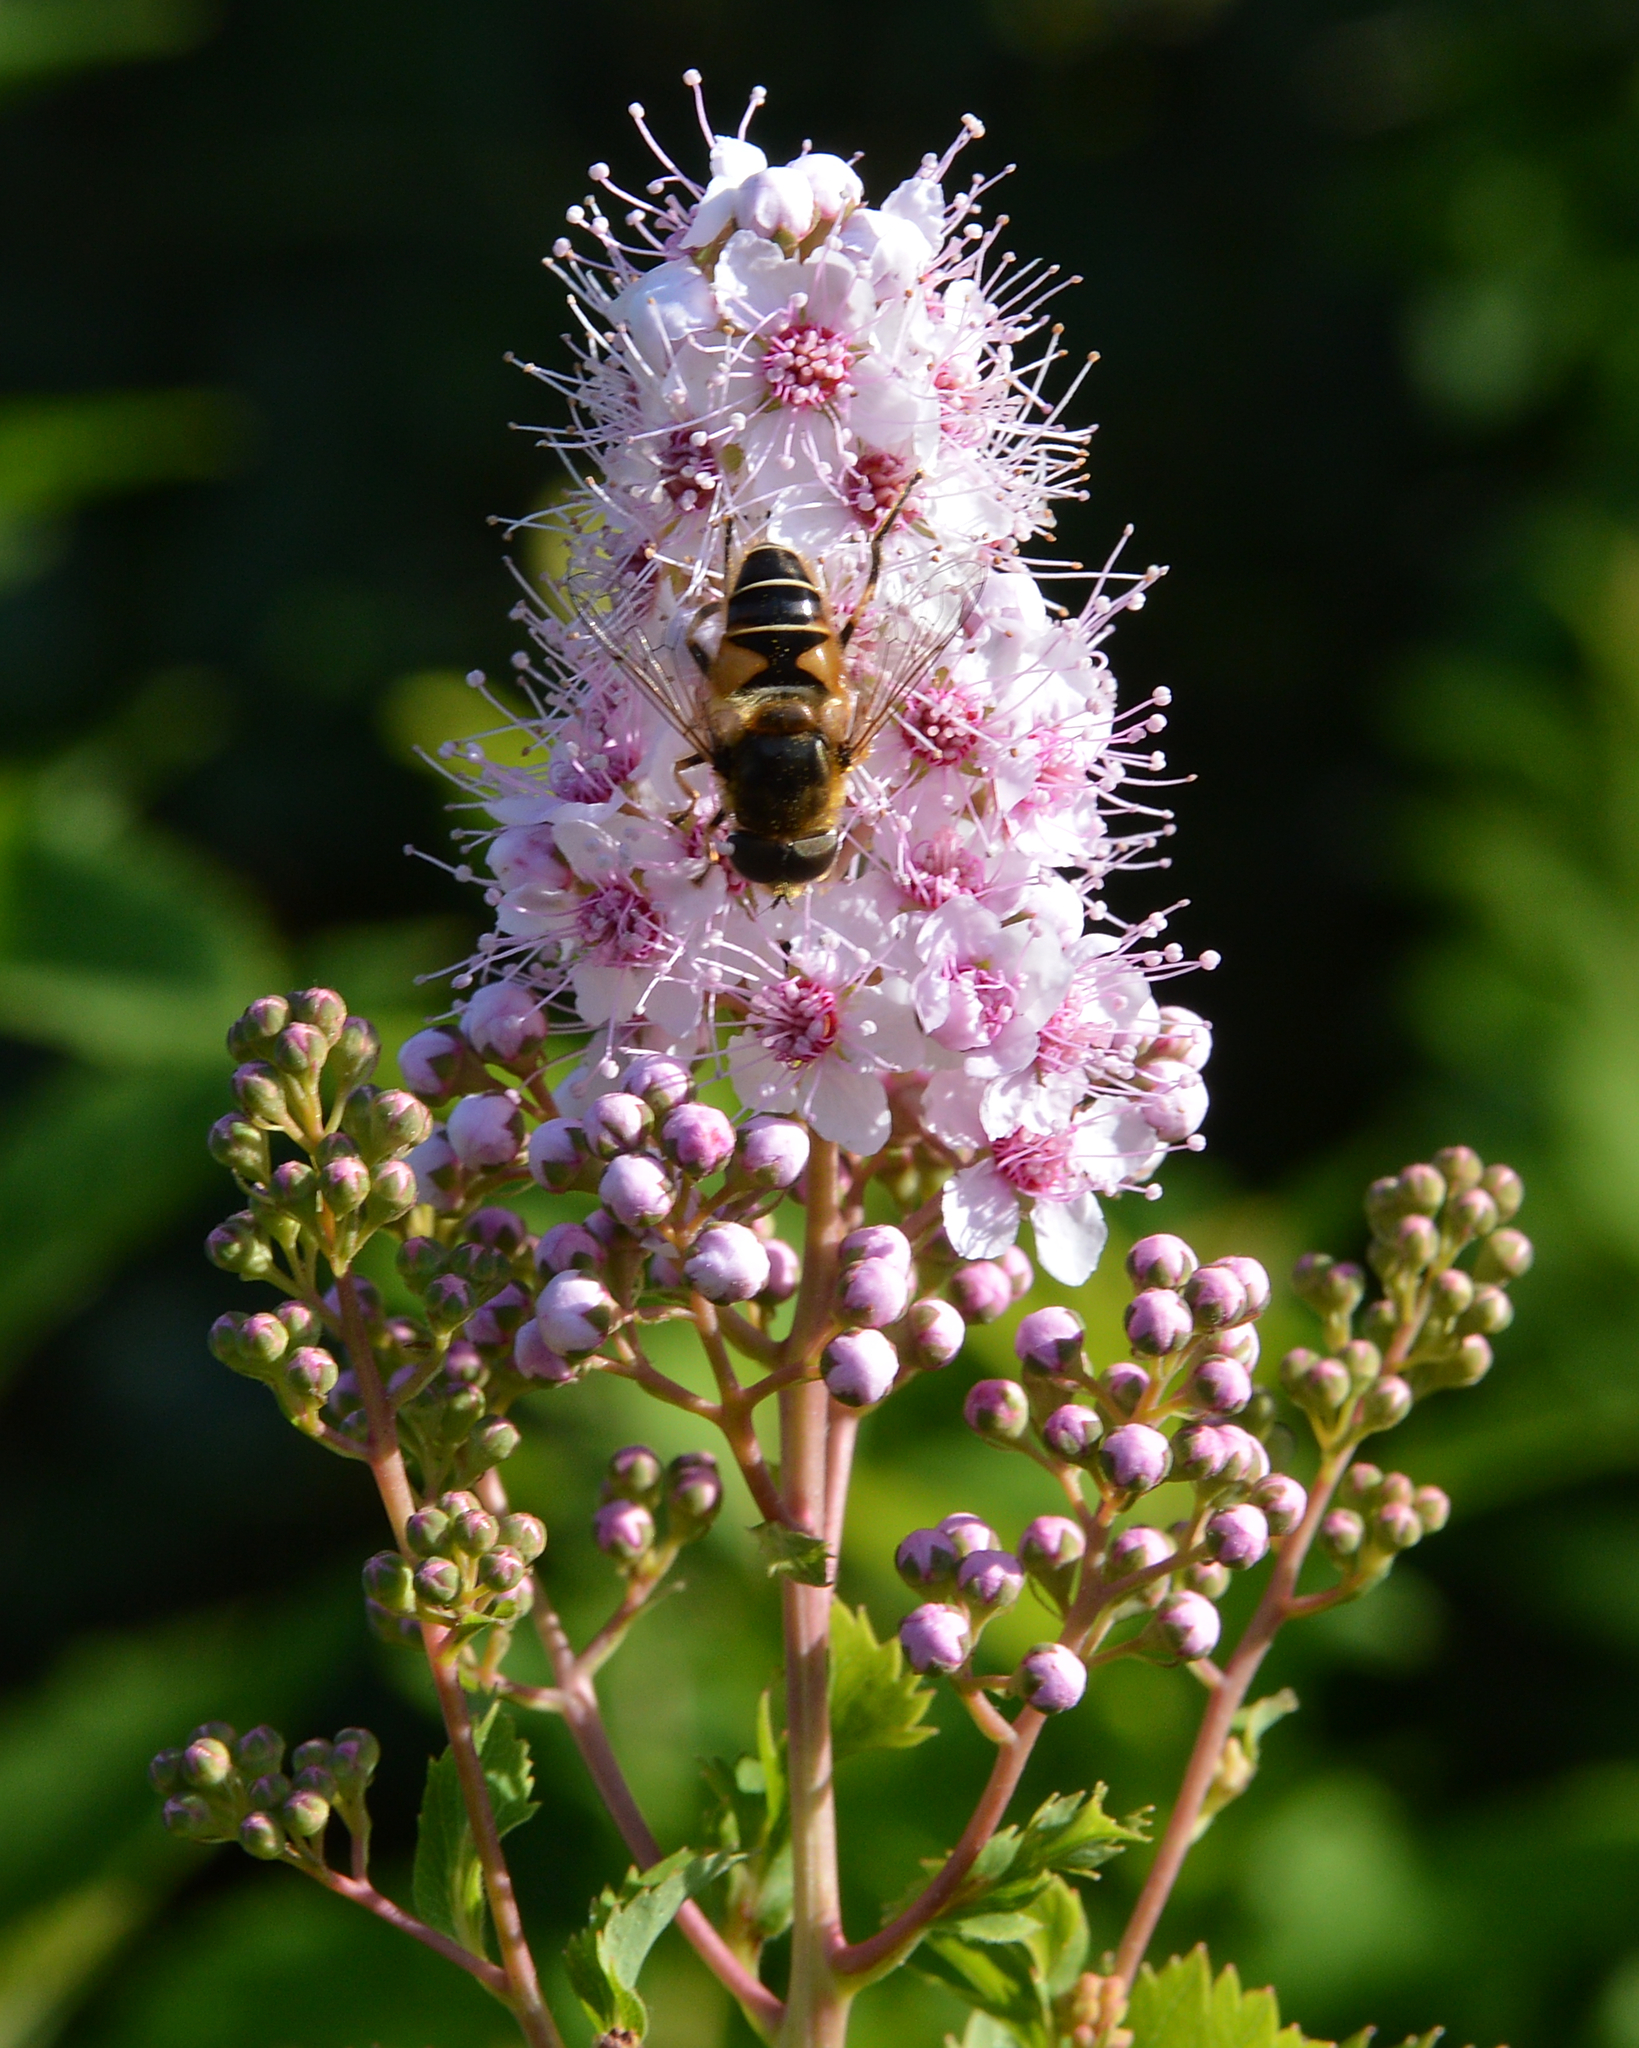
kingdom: Animalia
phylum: Arthropoda
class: Insecta
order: Diptera
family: Syrphidae
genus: Eristalis
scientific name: Eristalis nemorum
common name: Orange-spined drone fly
